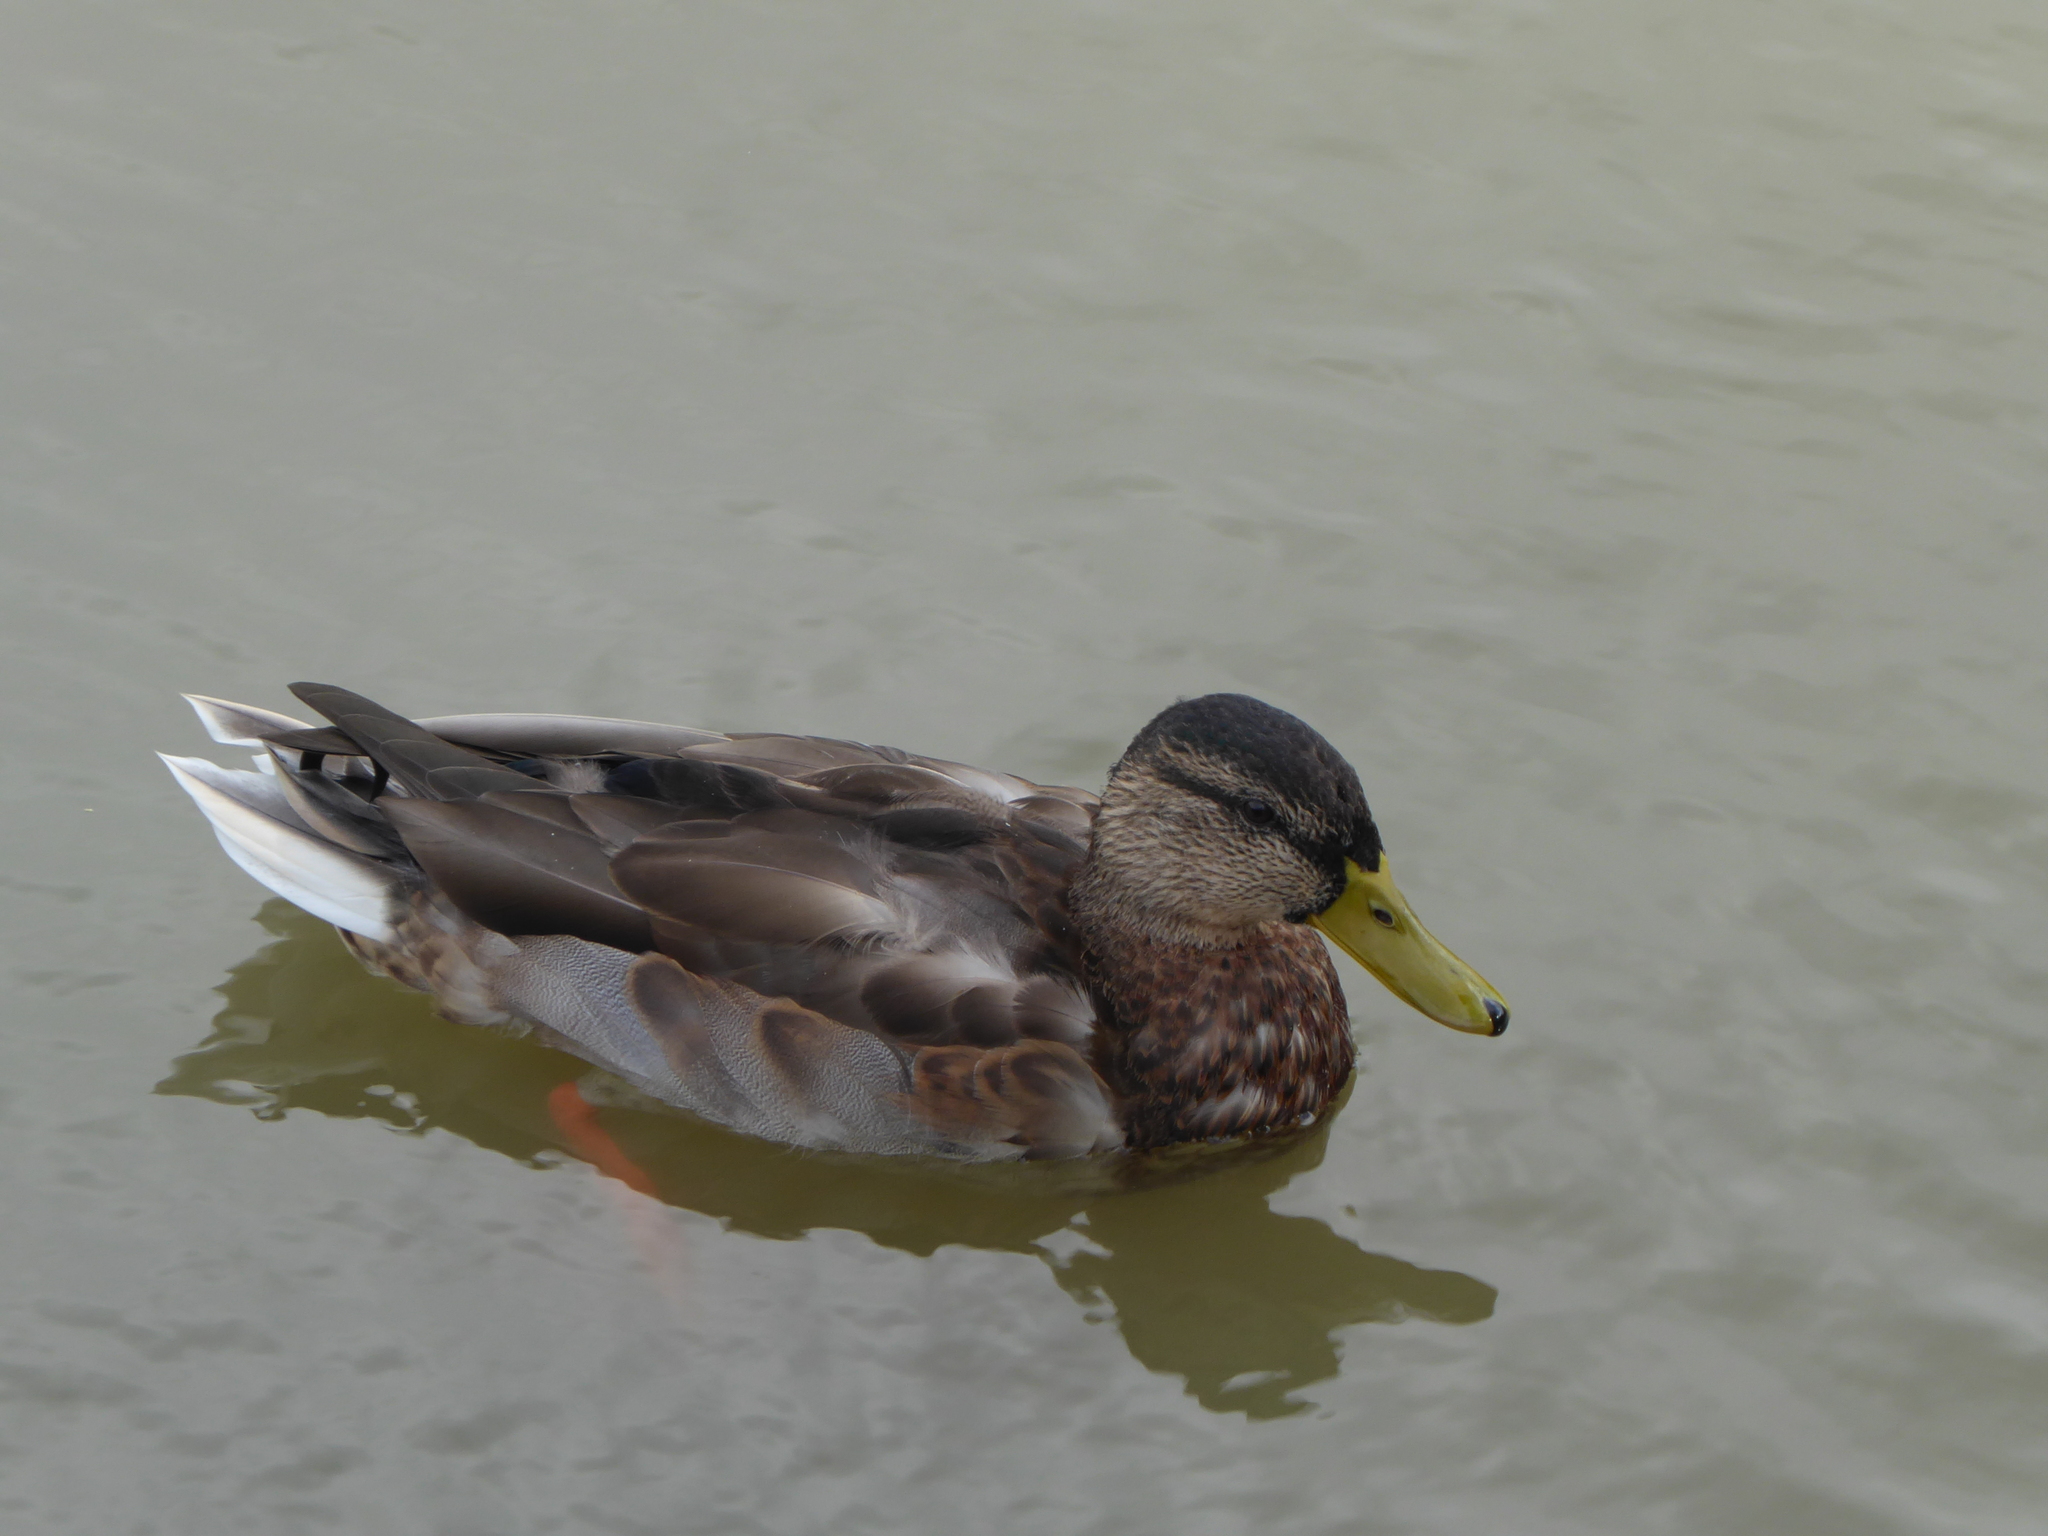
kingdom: Animalia
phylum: Chordata
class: Aves
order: Anseriformes
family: Anatidae
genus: Anas
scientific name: Anas platyrhynchos
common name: Mallard
